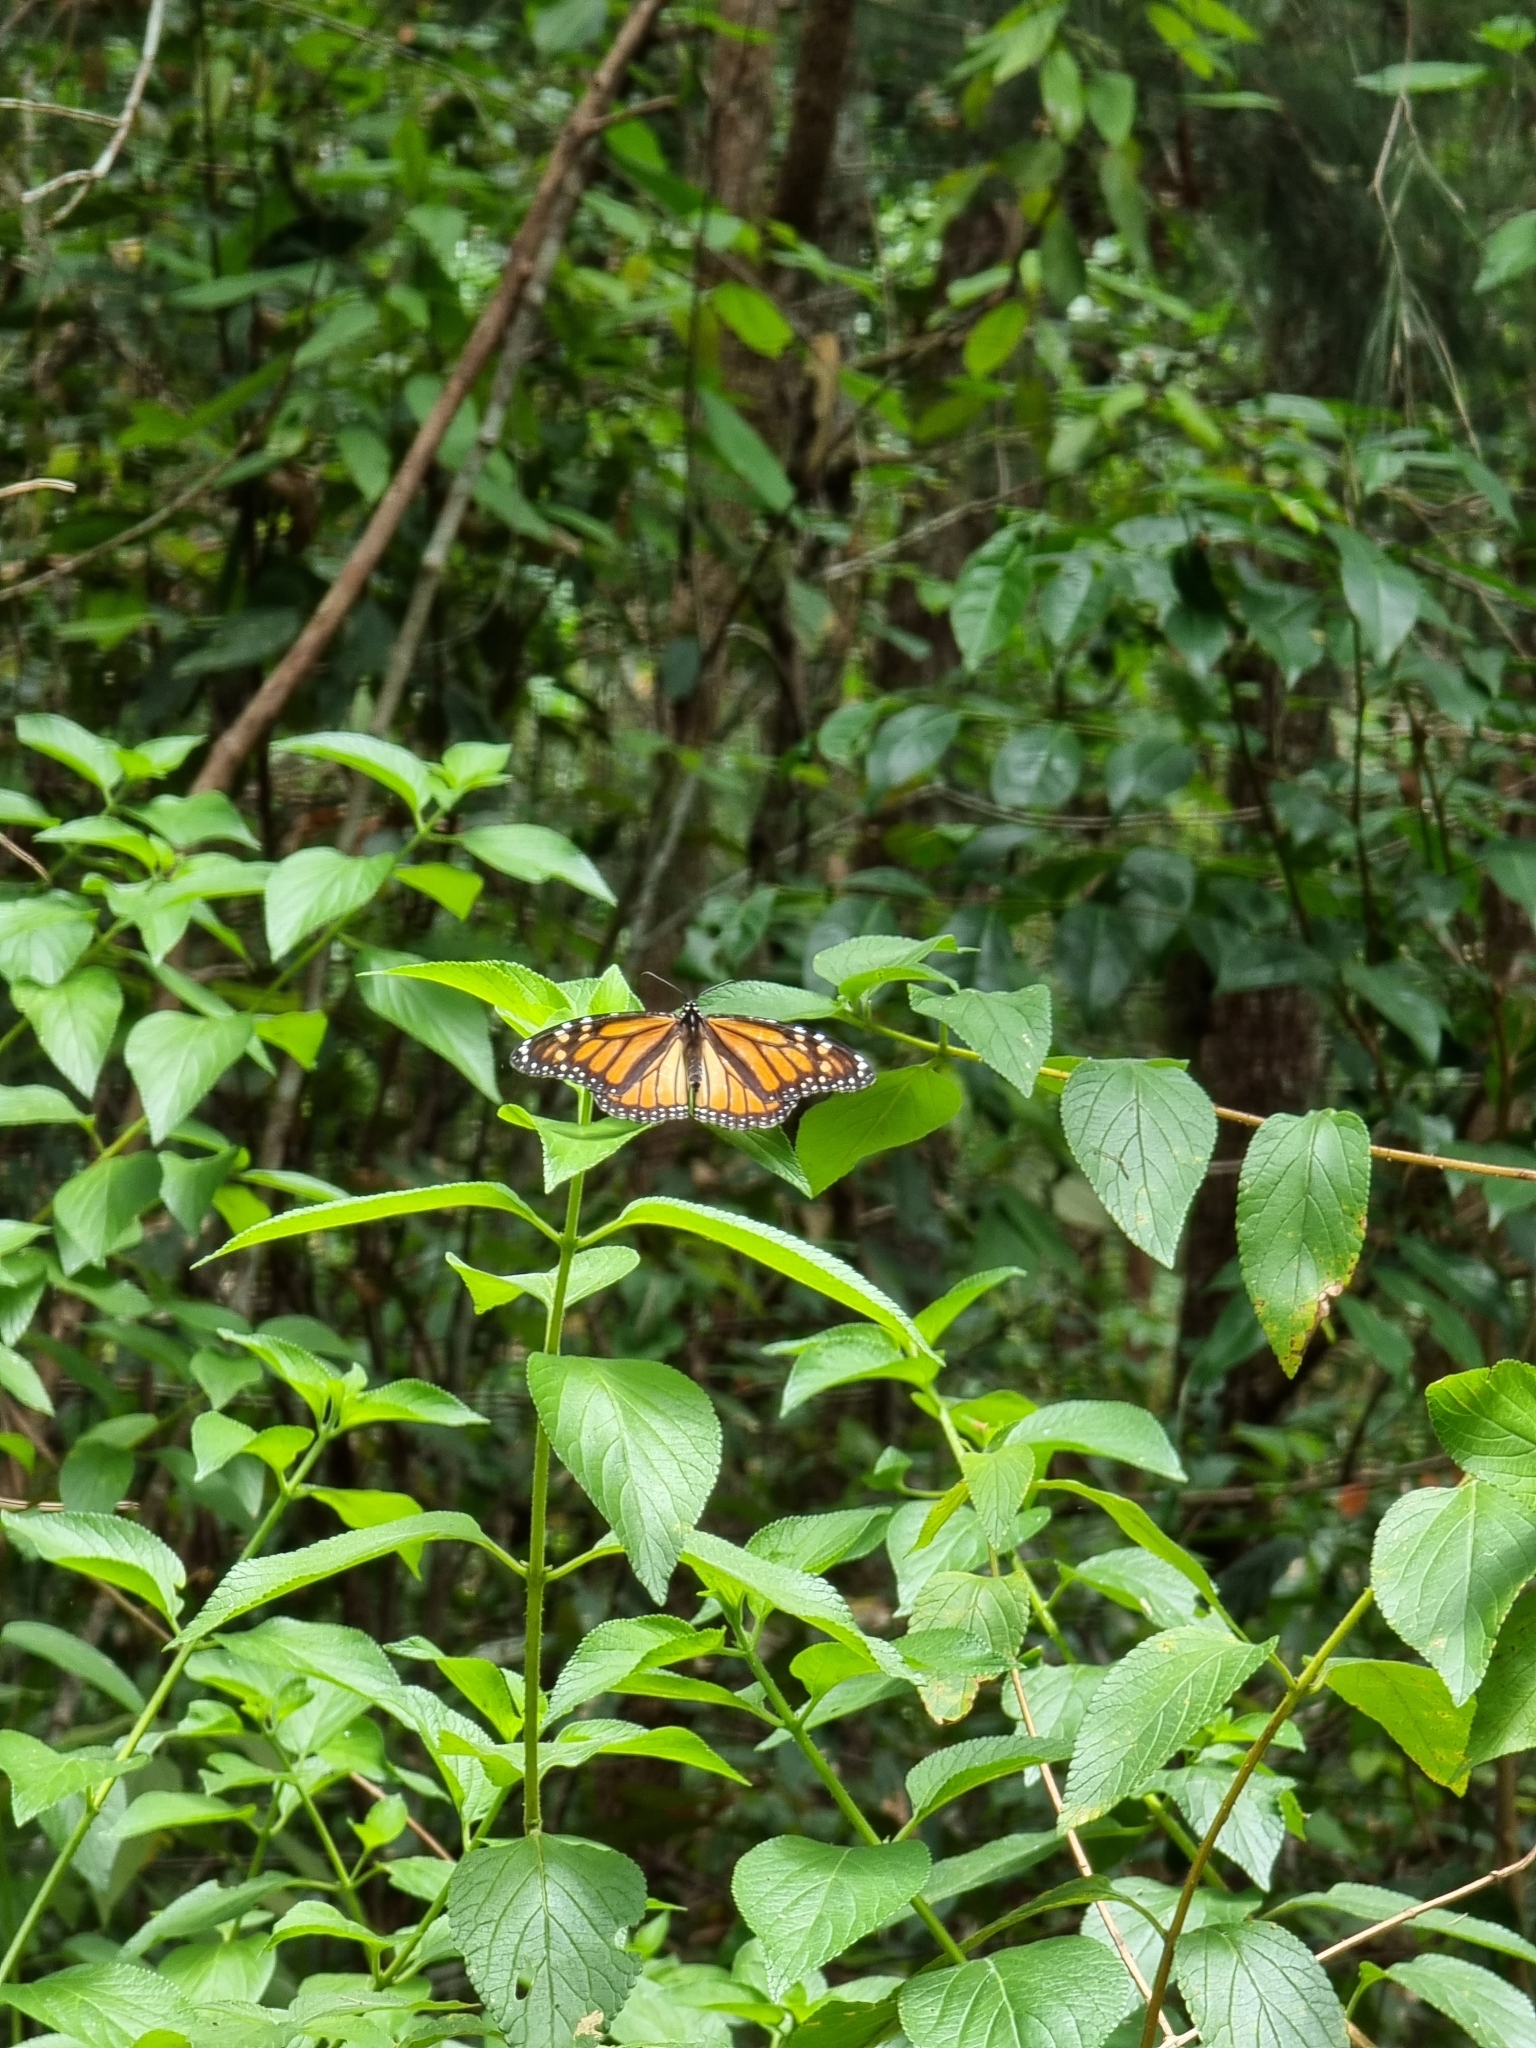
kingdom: Animalia
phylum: Arthropoda
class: Insecta
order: Lepidoptera
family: Nymphalidae
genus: Danaus
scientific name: Danaus plexippus
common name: Monarch
